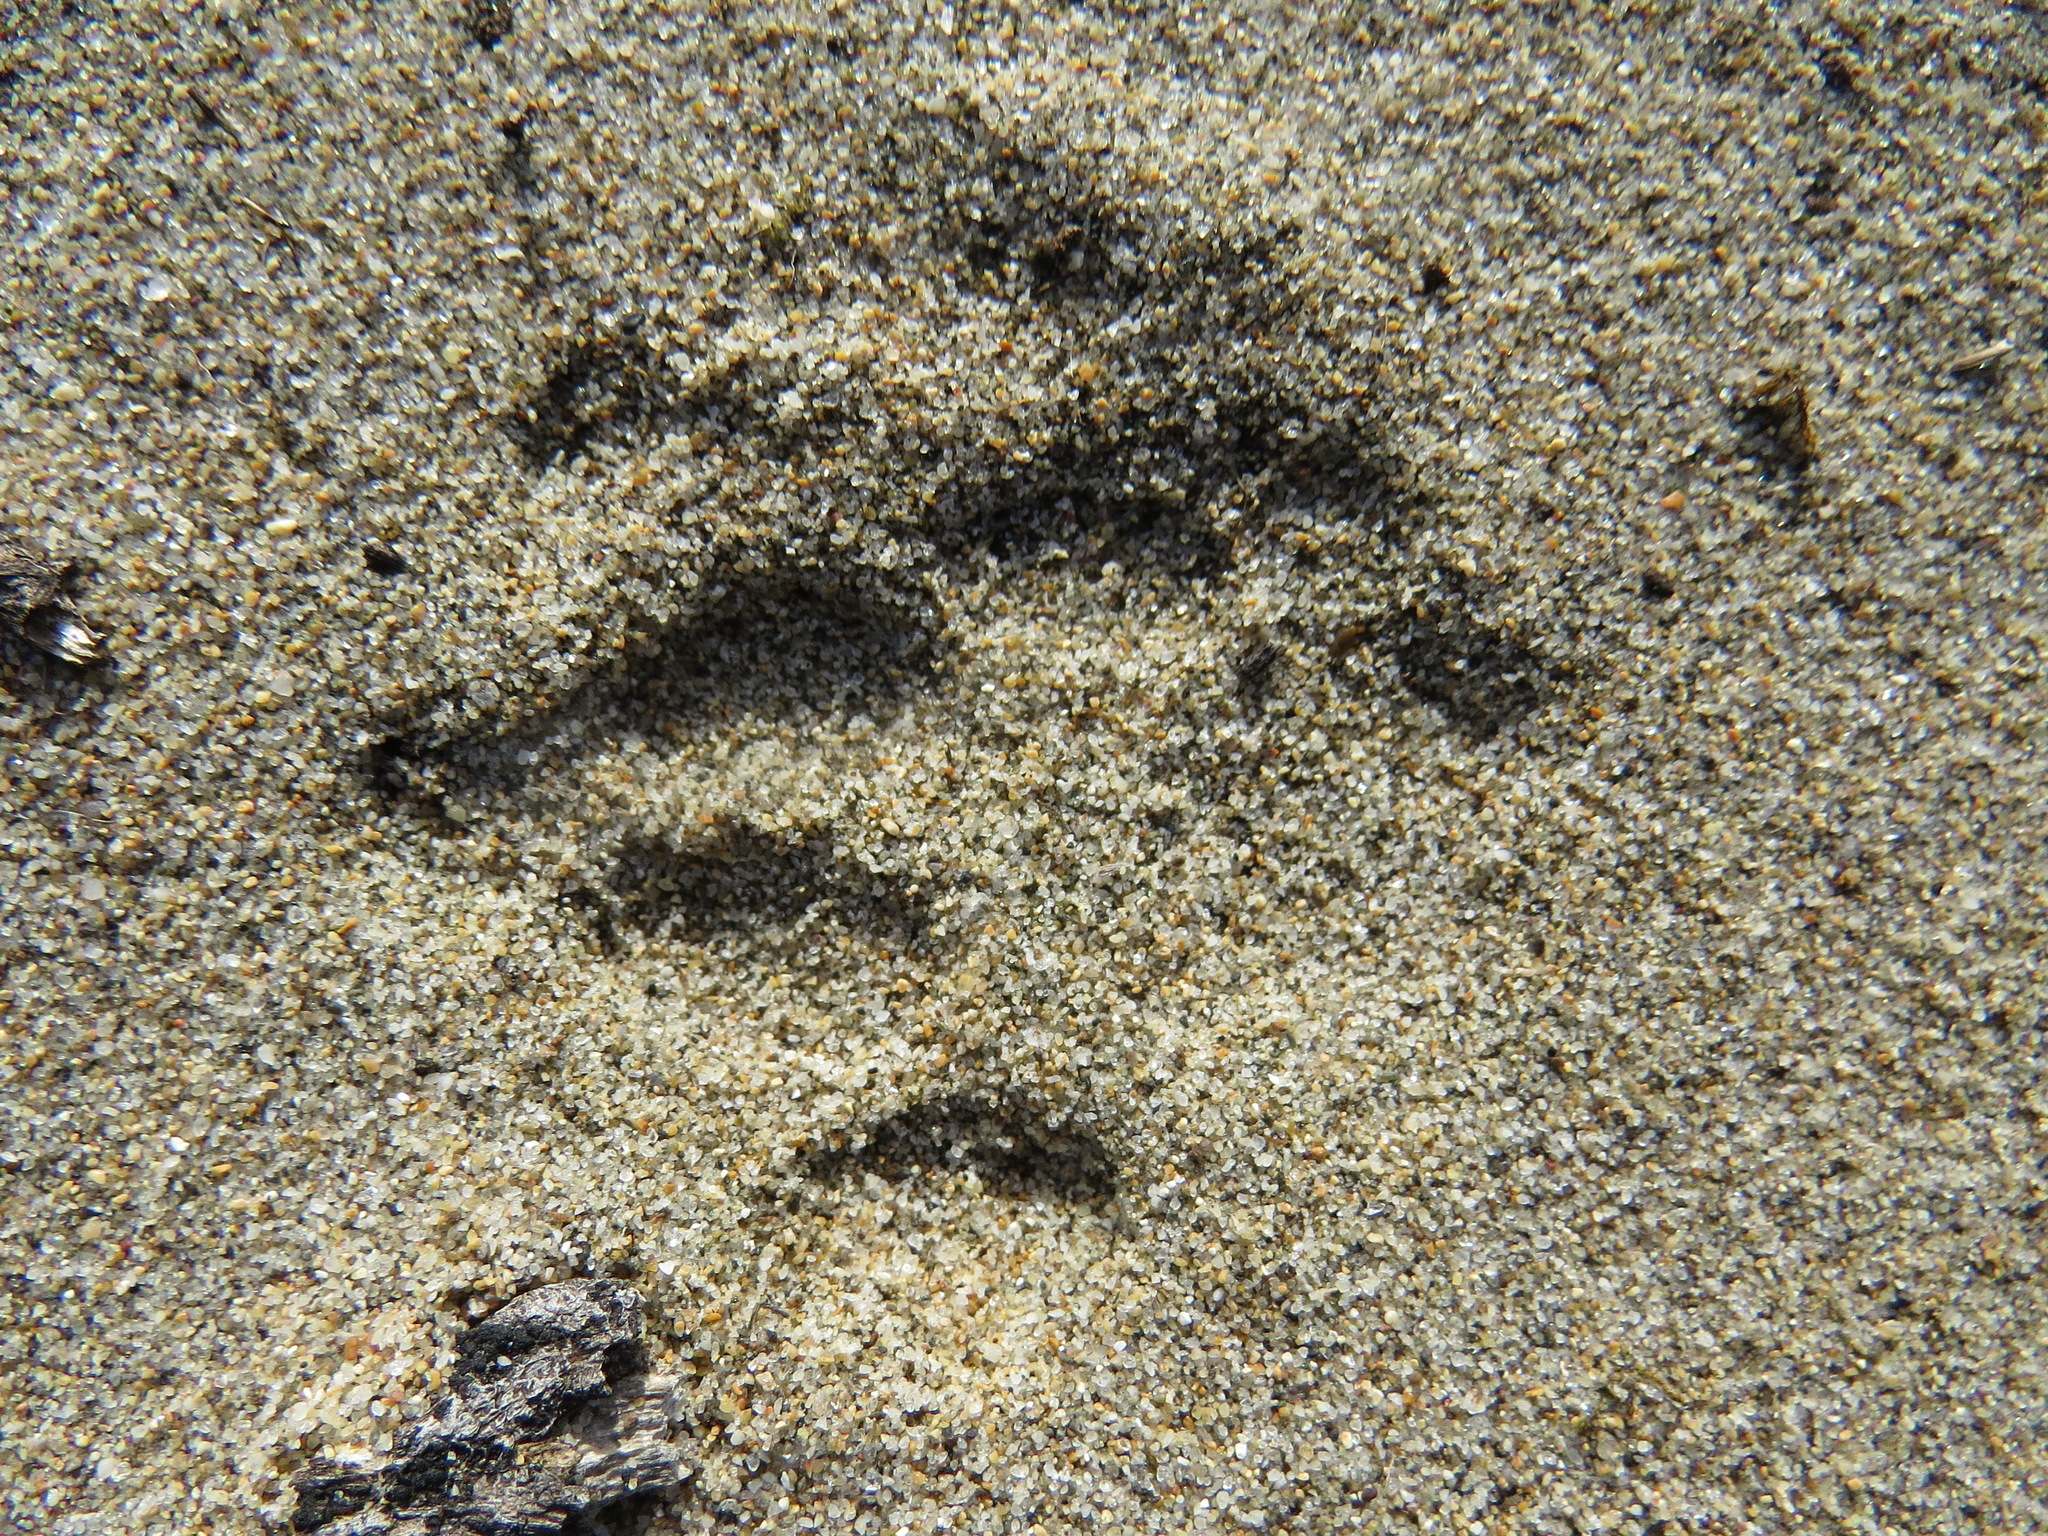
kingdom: Animalia
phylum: Chordata
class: Mammalia
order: Carnivora
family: Felidae
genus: Lynx
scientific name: Lynx rufus
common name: Bobcat
